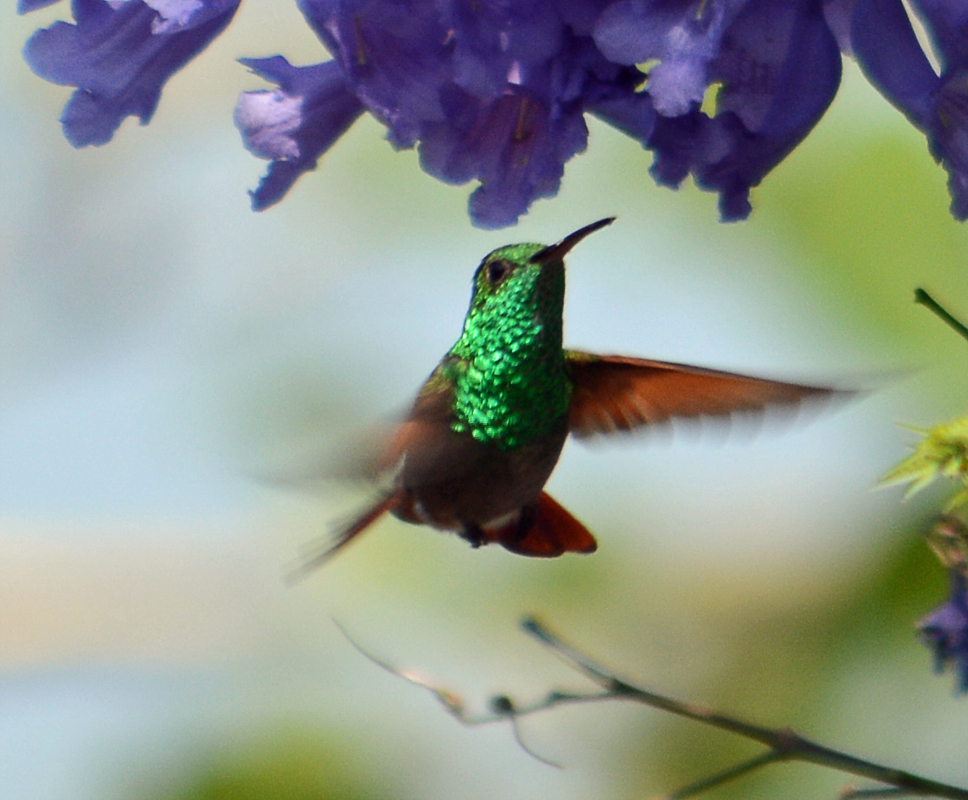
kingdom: Animalia
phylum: Chordata
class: Aves
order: Apodiformes
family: Trochilidae
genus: Saucerottia
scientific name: Saucerottia beryllina
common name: Berylline hummingbird
